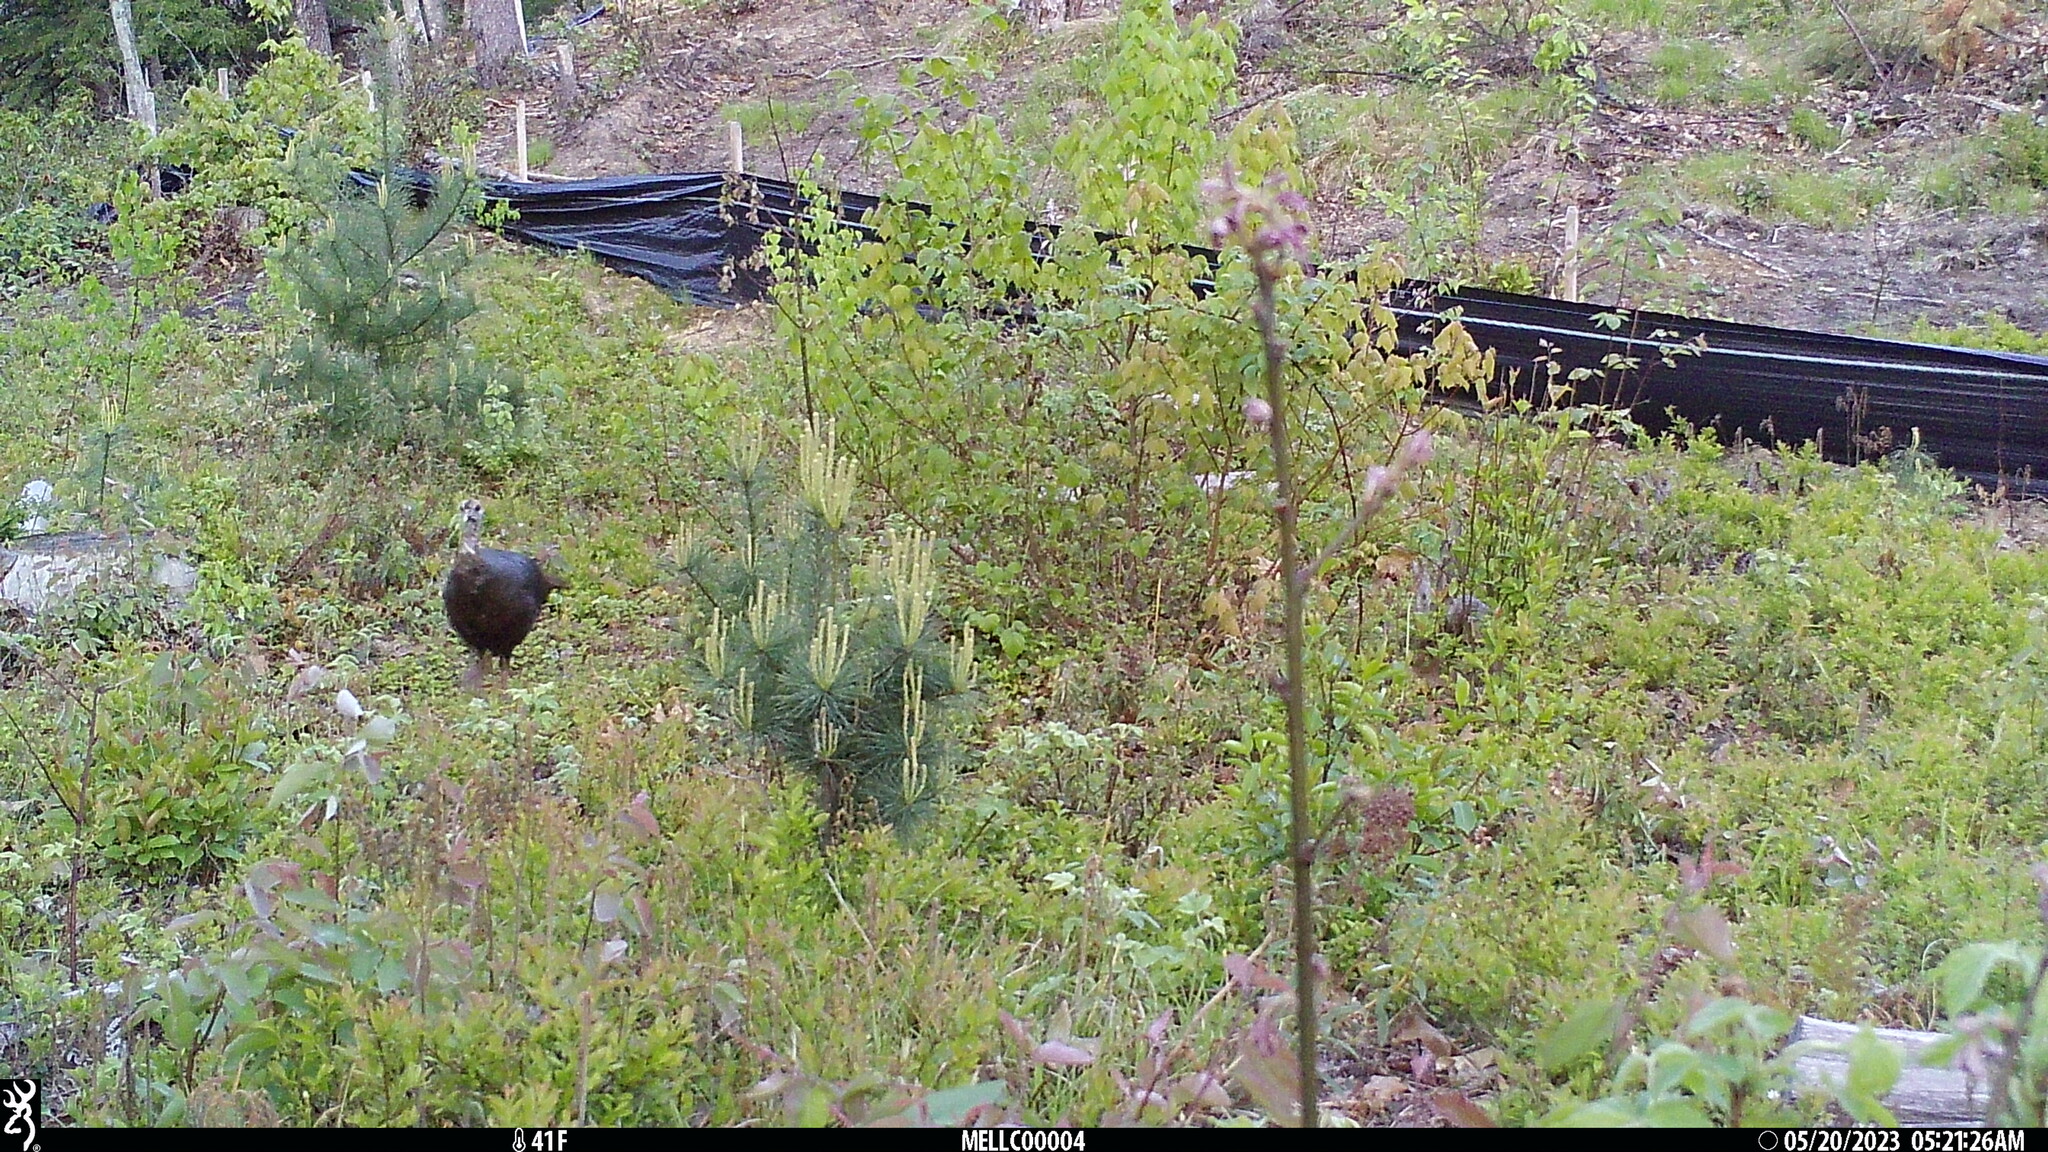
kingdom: Animalia
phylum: Chordata
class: Aves
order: Galliformes
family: Phasianidae
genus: Meleagris
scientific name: Meleagris gallopavo
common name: Wild turkey
